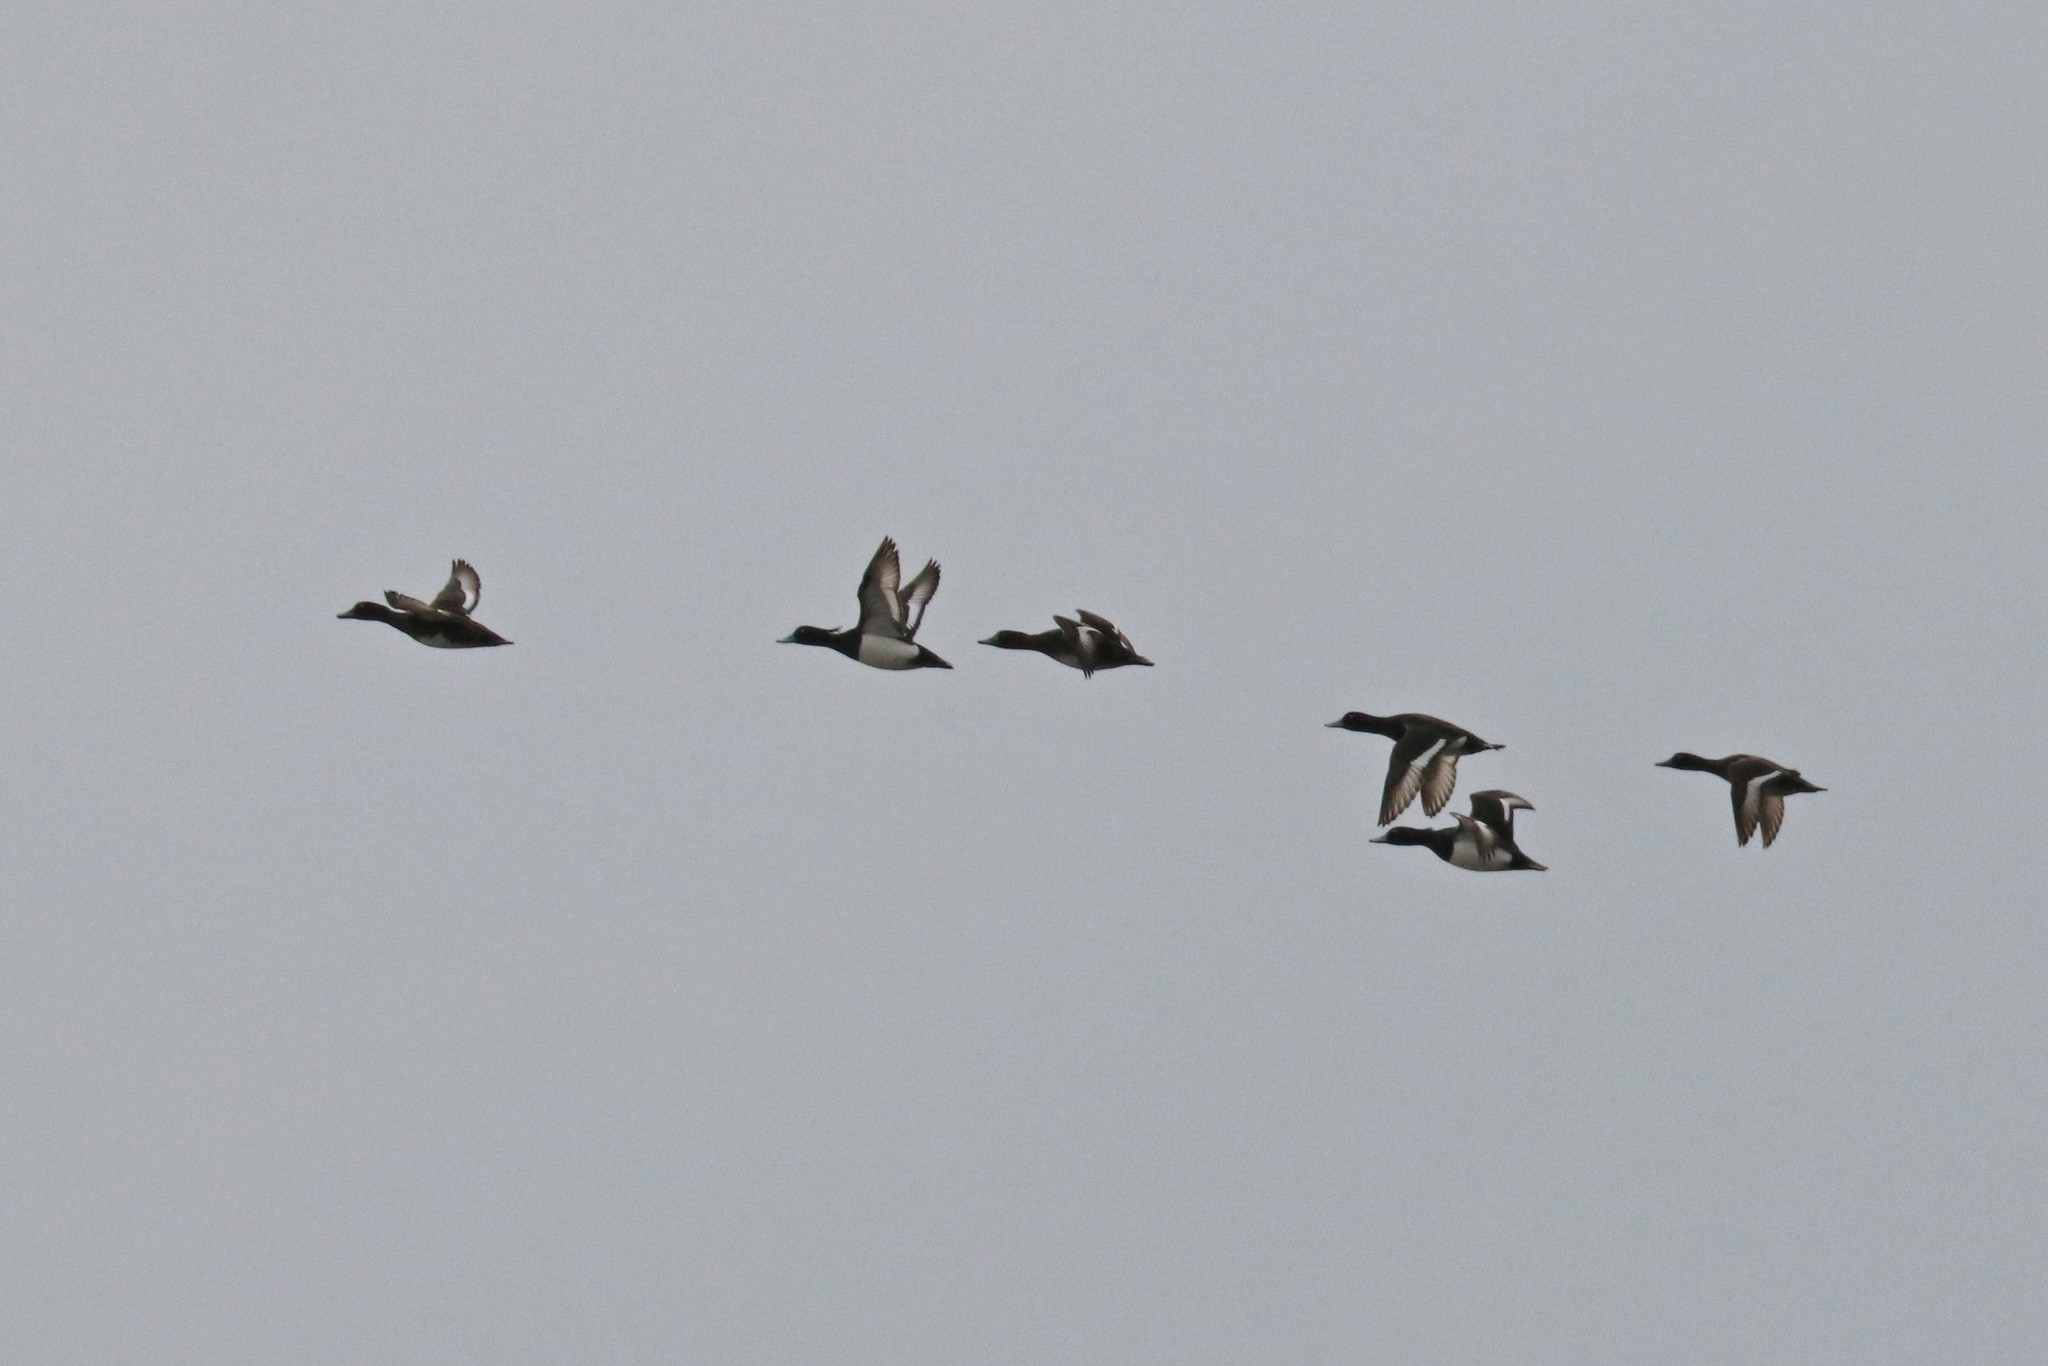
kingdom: Animalia
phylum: Chordata
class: Aves
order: Anseriformes
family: Anatidae
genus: Aythya
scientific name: Aythya fuligula
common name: Tufted duck
